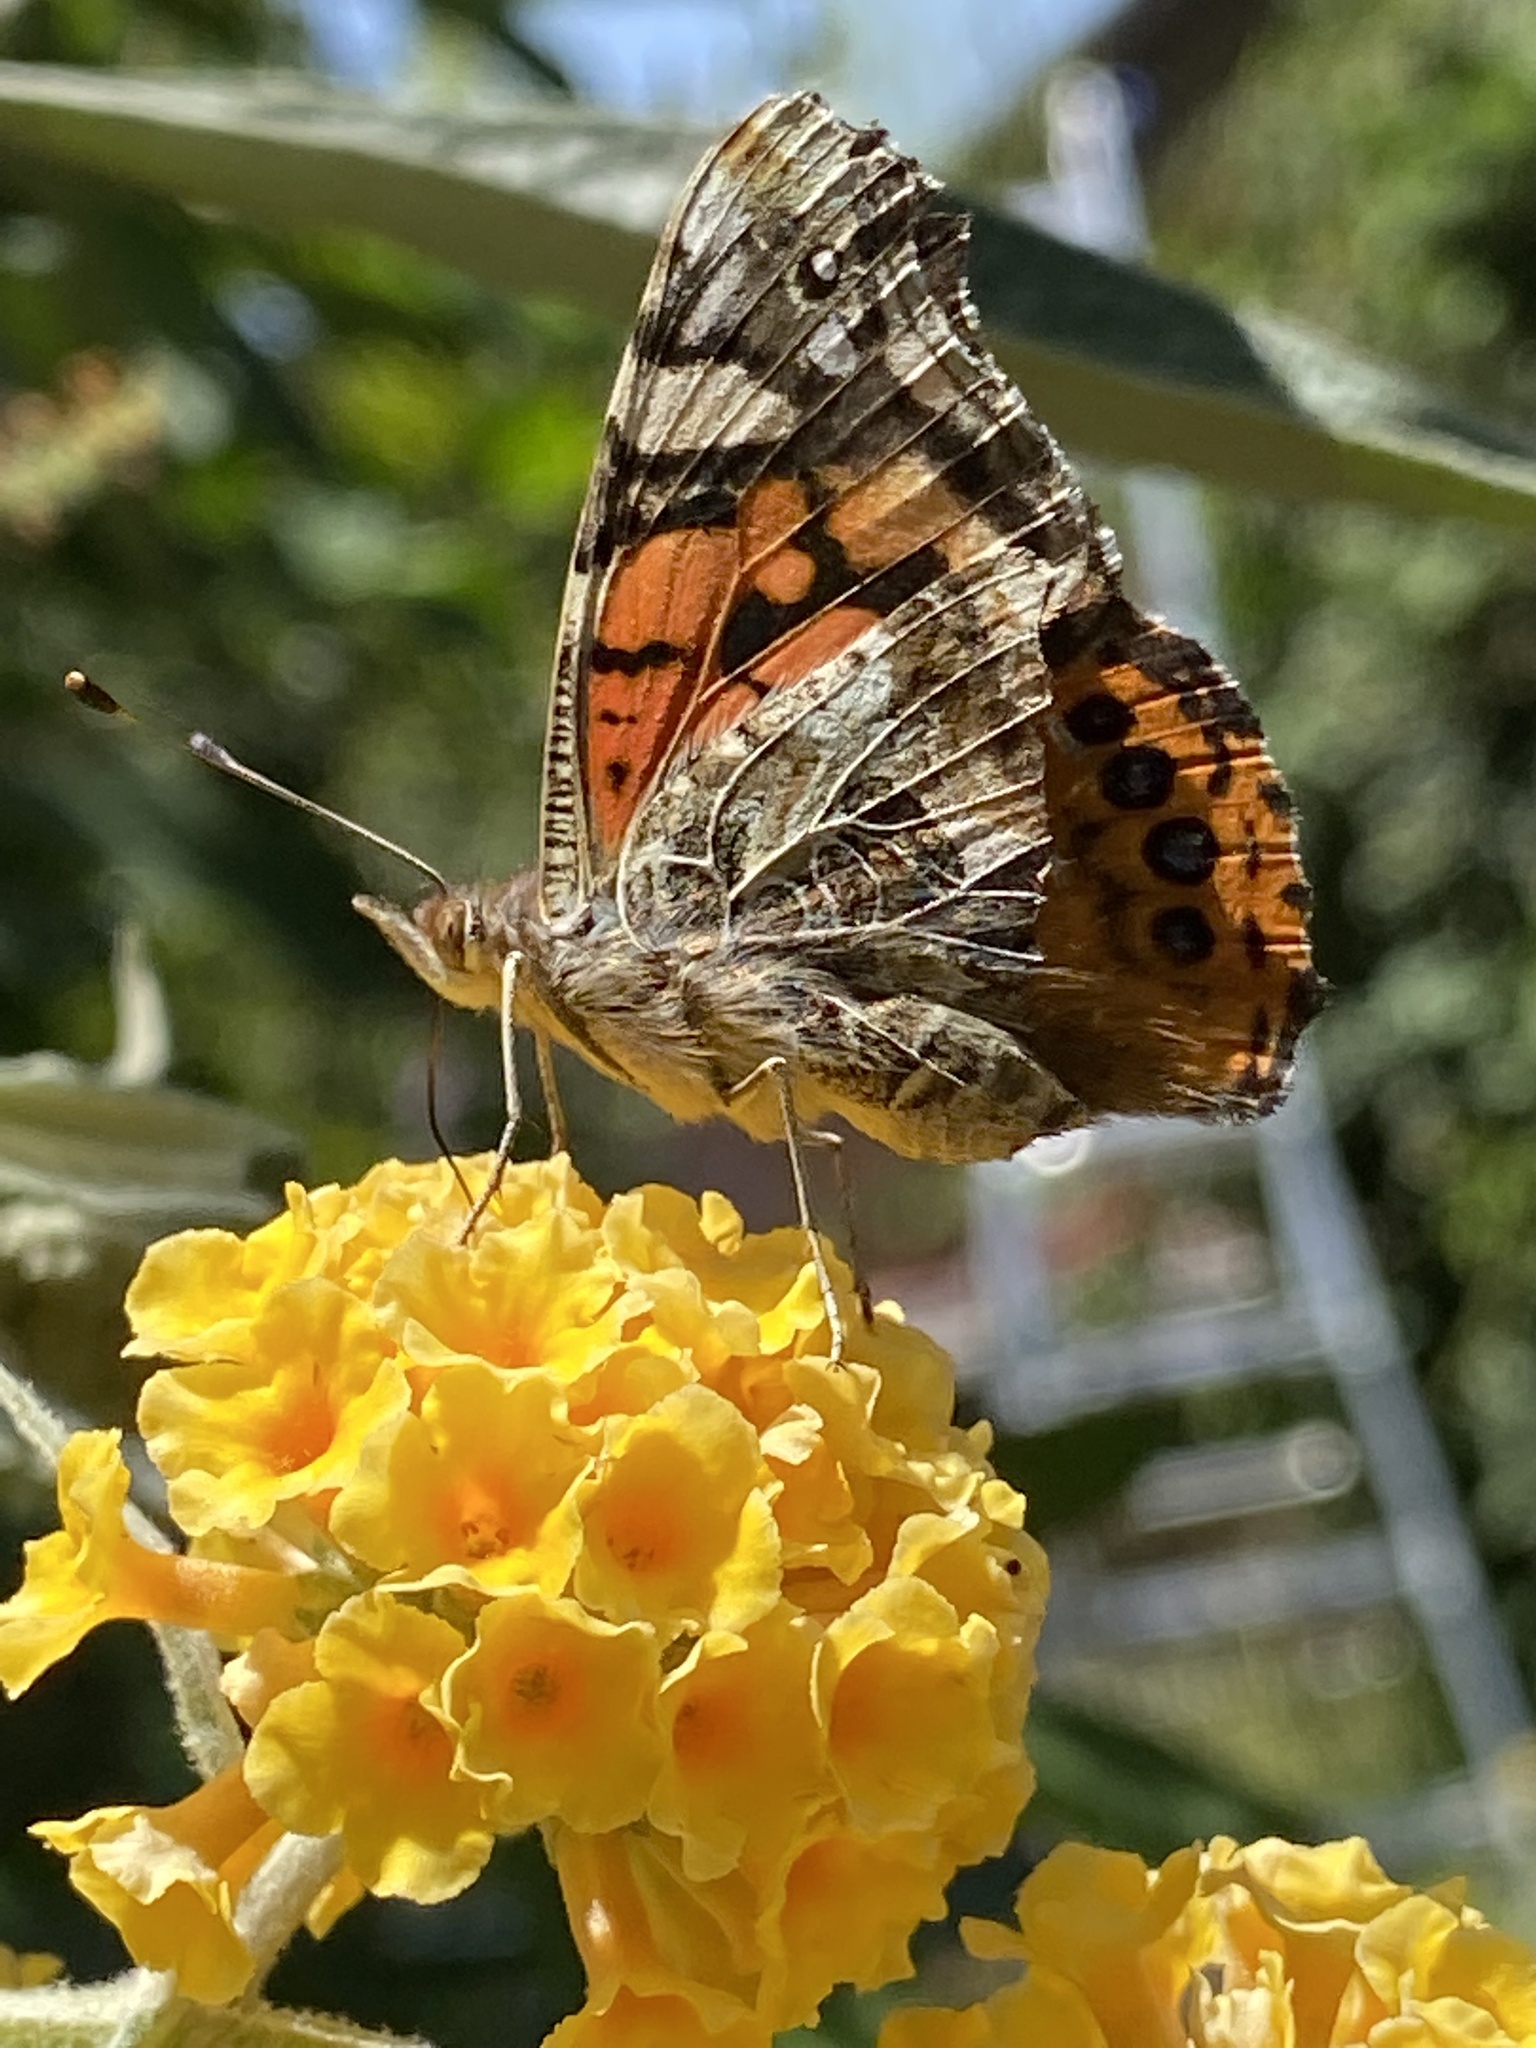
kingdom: Animalia
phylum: Arthropoda
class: Insecta
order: Lepidoptera
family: Nymphalidae
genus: Vanessa
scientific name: Vanessa annabella
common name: West coast lady
